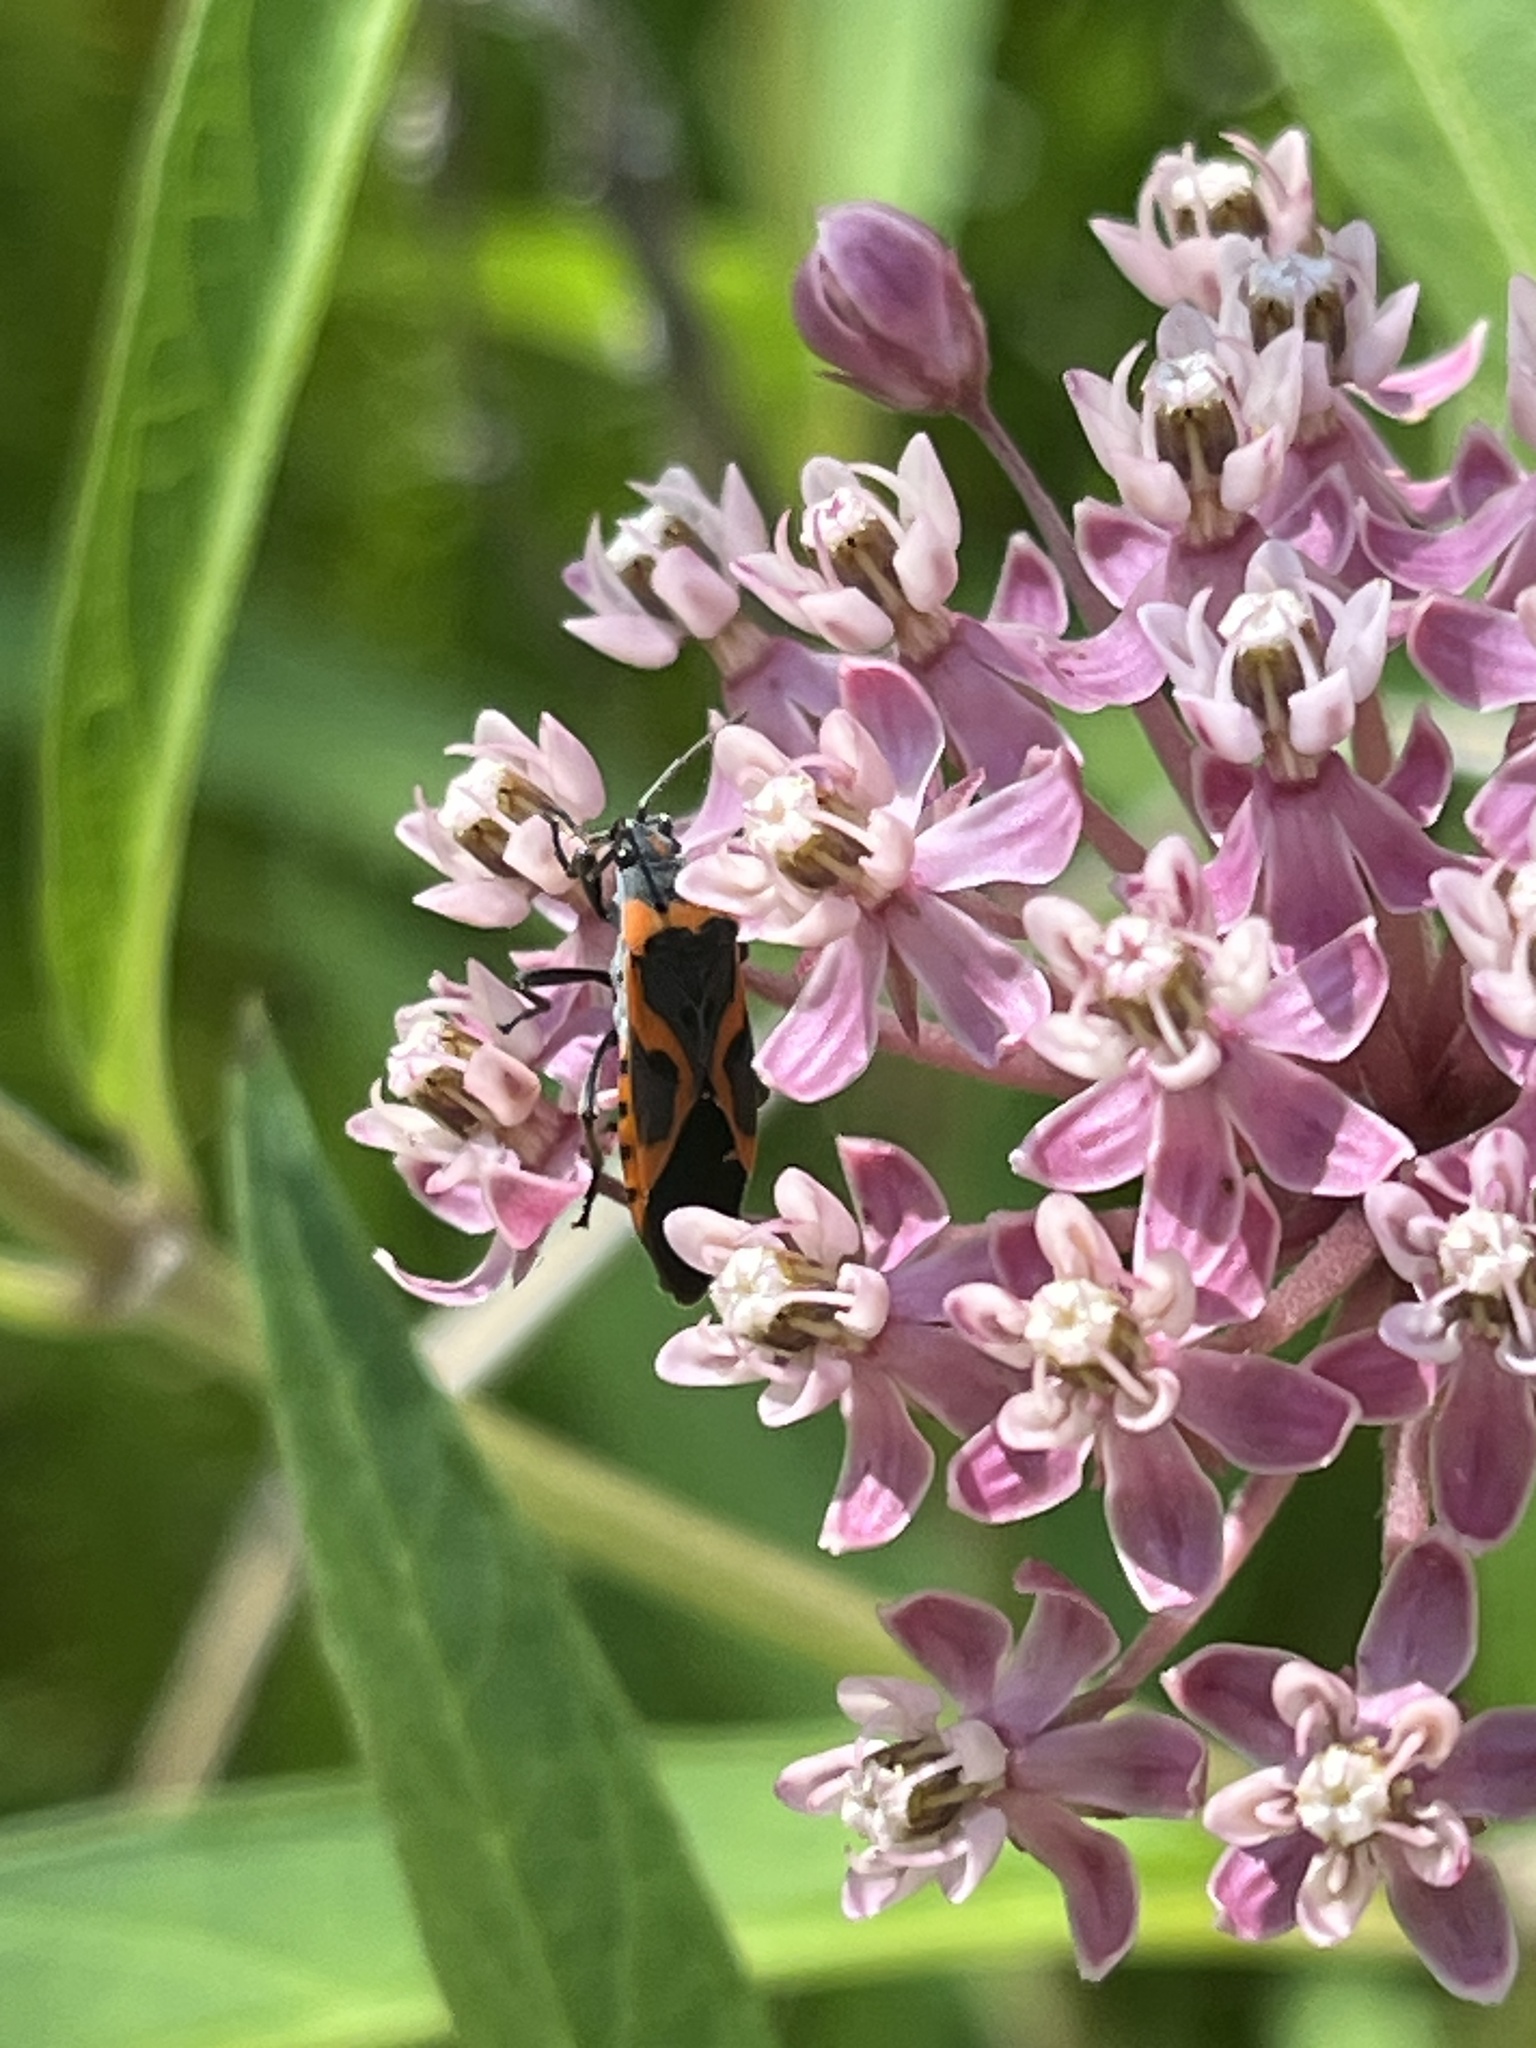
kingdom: Animalia
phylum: Arthropoda
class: Insecta
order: Hemiptera
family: Lygaeidae
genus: Lygaeus
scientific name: Lygaeus kalmii
